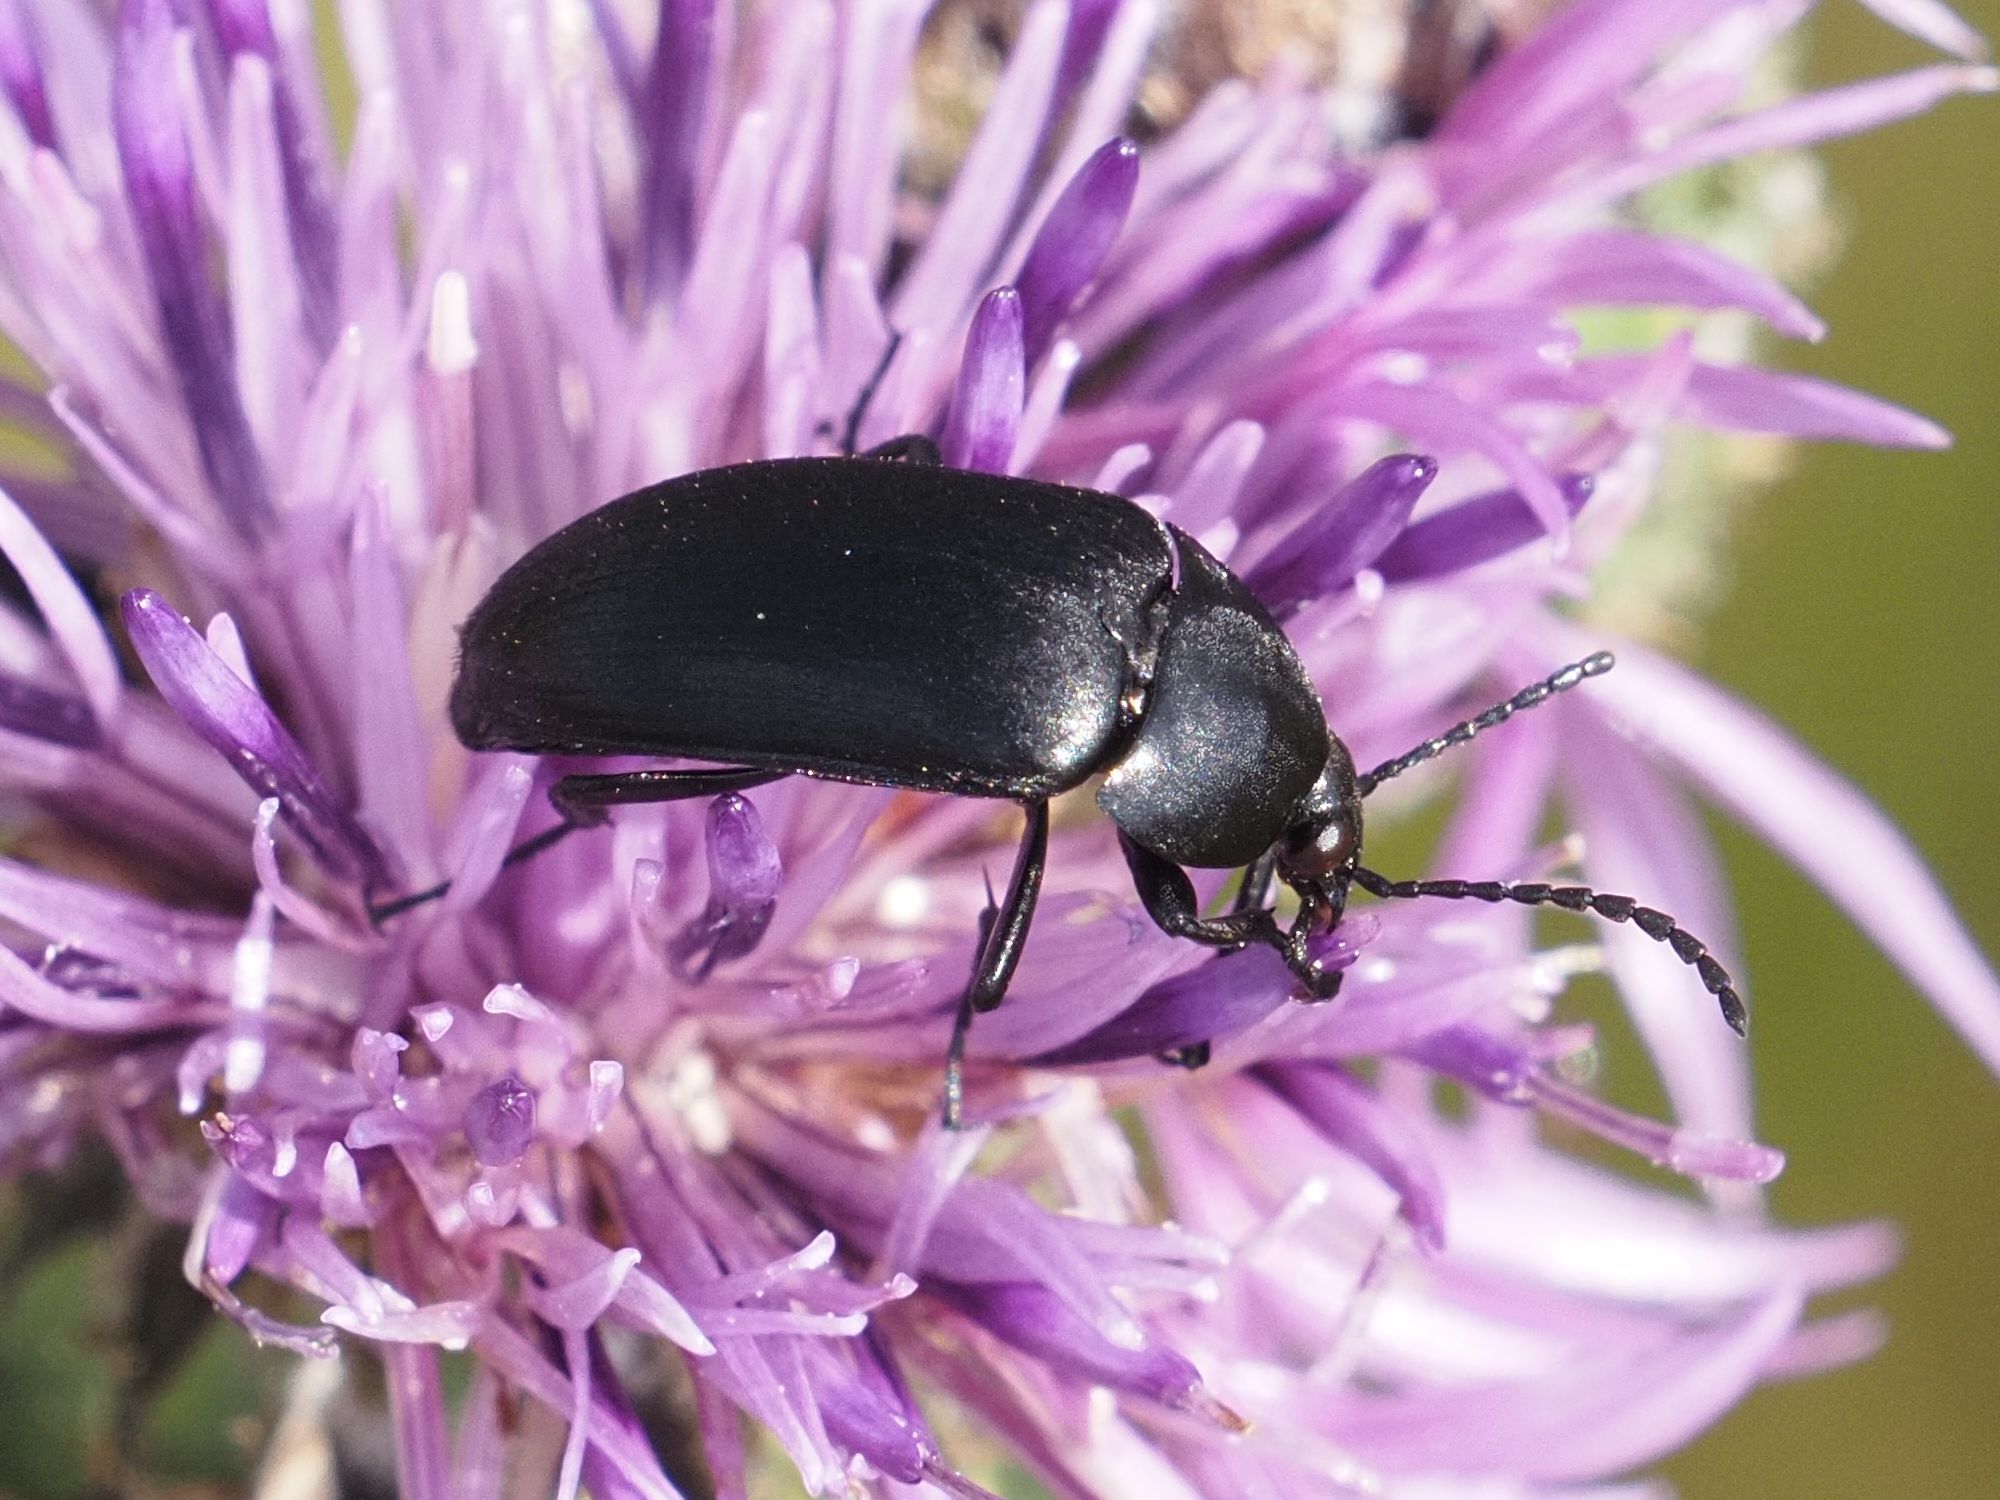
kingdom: Animalia
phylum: Arthropoda
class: Insecta
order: Coleoptera
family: Tenebrionidae
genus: Podonta
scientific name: Podonta nigrita
